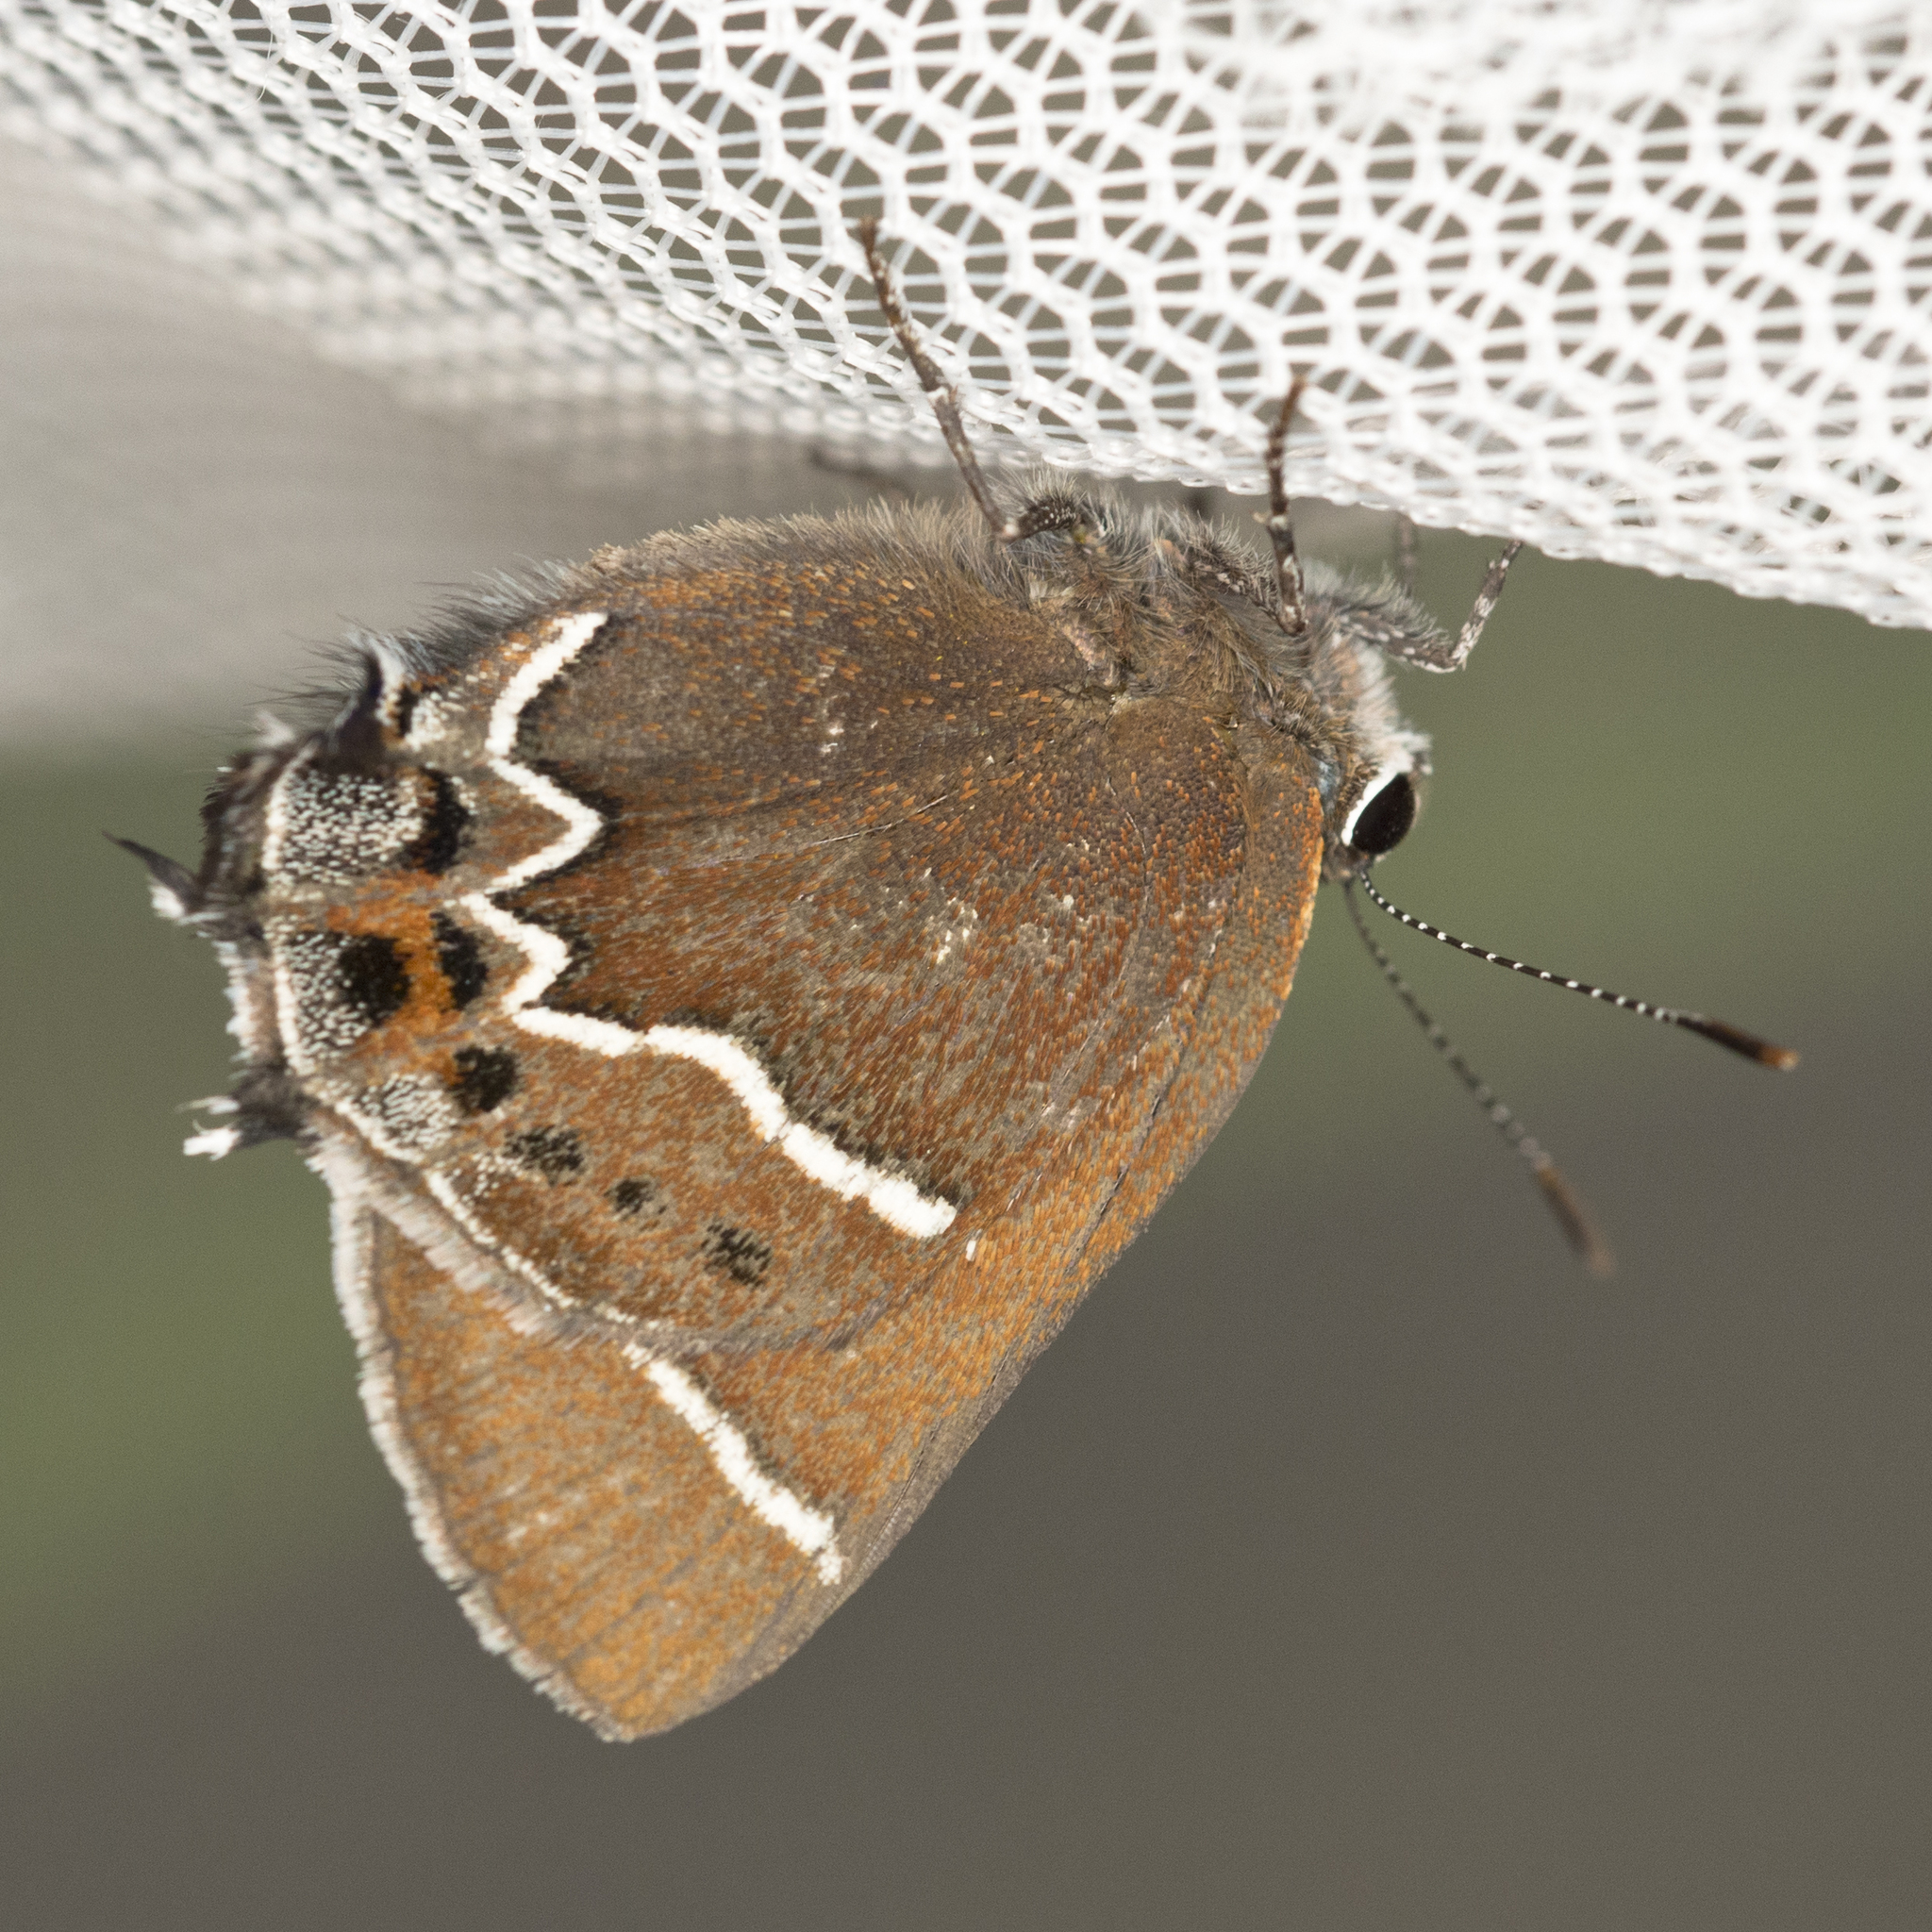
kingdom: Animalia
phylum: Arthropoda
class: Insecta
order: Lepidoptera
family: Lycaenidae
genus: Mitoura
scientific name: Mitoura spinetorum
